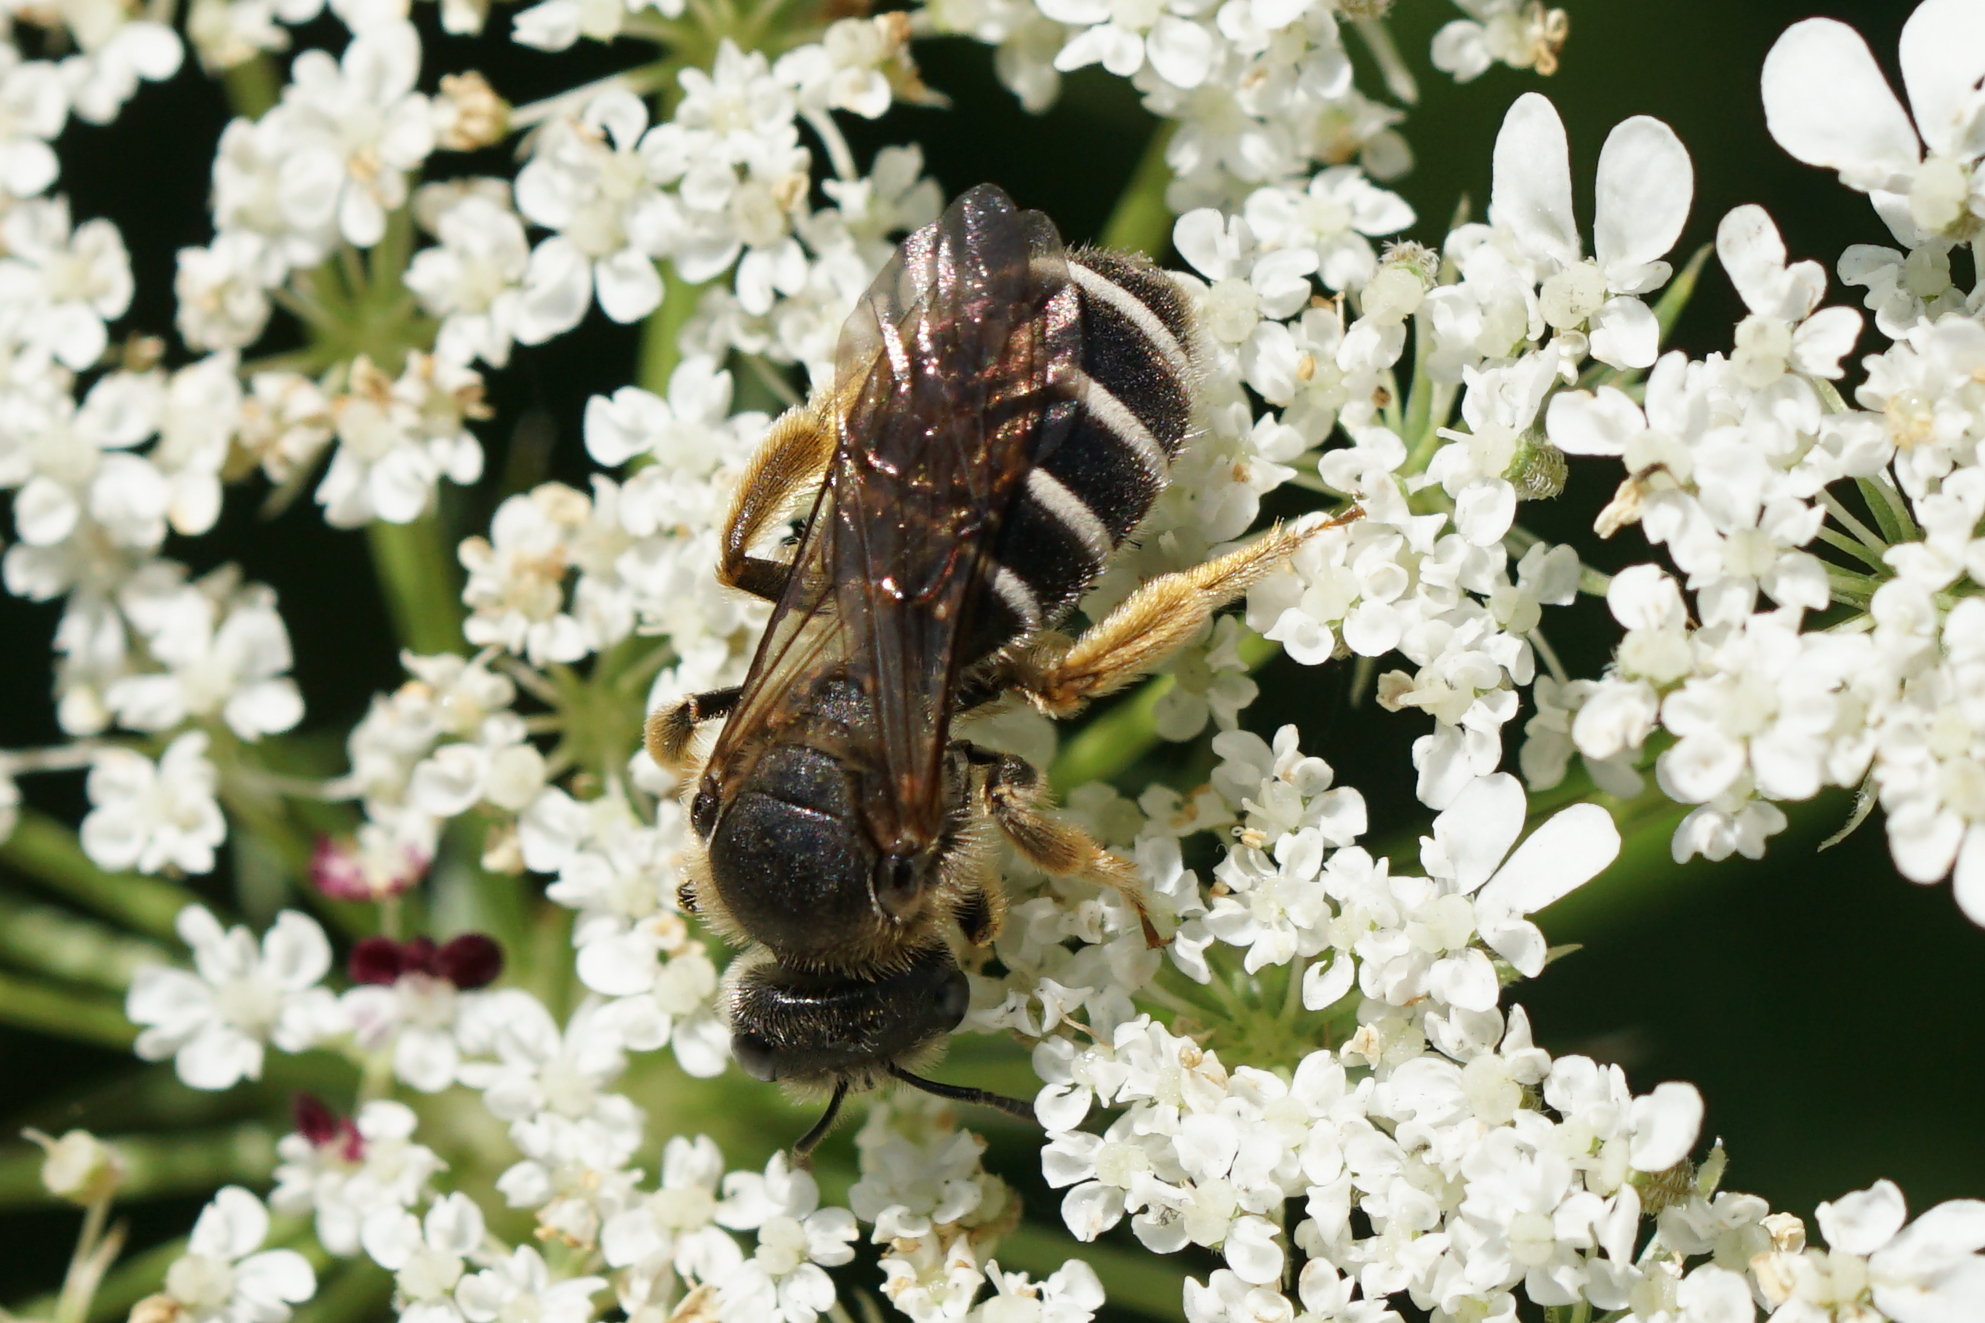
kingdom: Animalia
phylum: Arthropoda
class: Insecta
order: Hymenoptera
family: Halictidae
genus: Halictus
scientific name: Halictus rubicundus
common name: Orange-legged furrow bee
